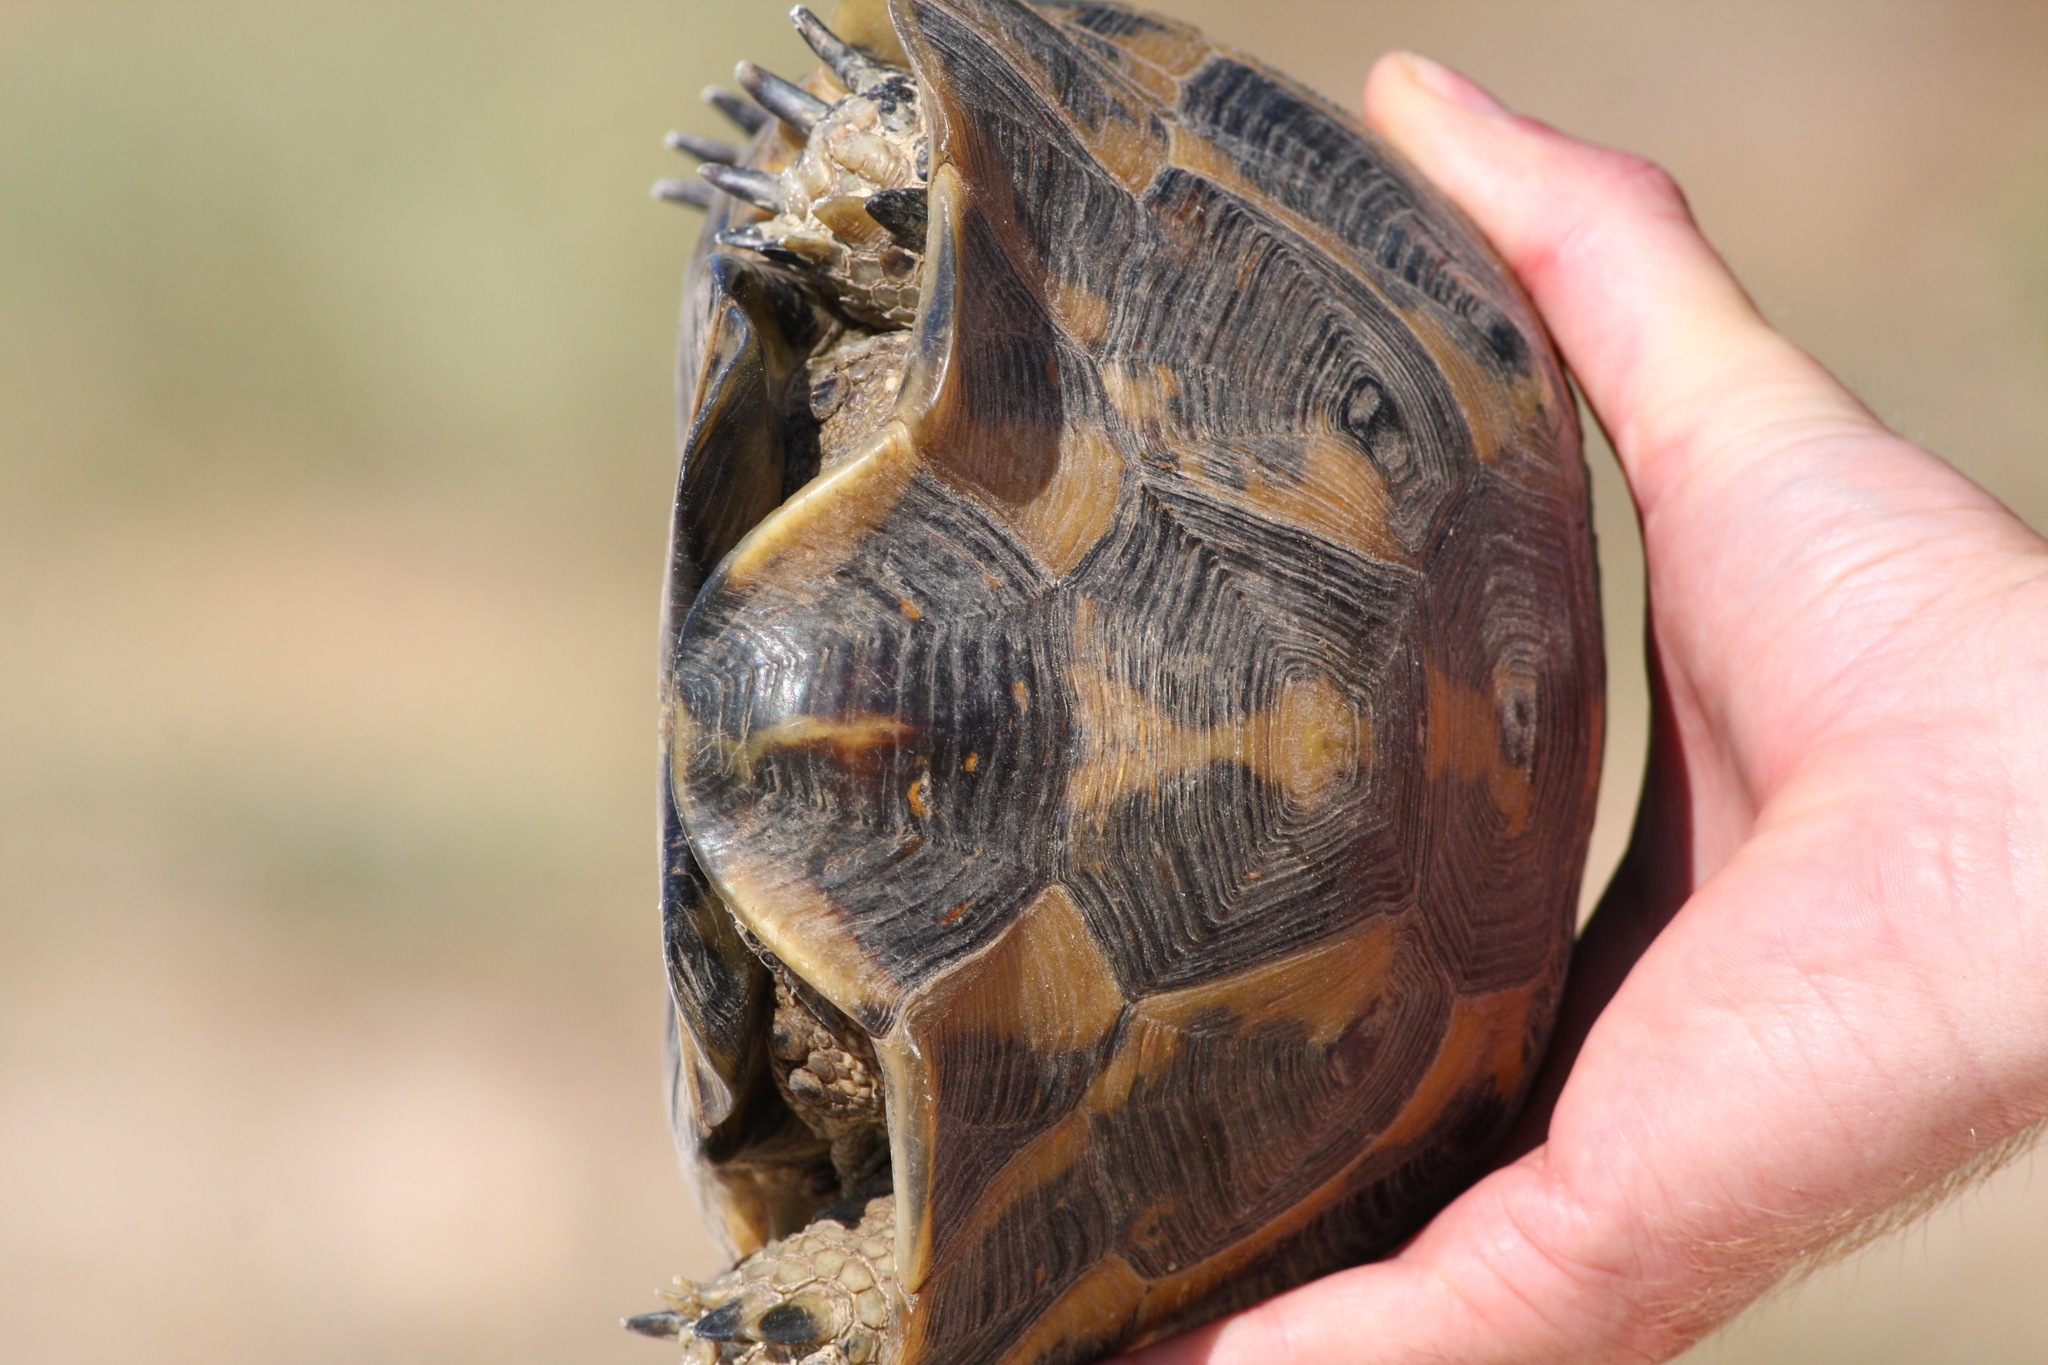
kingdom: Animalia
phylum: Chordata
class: Testudines
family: Testudinidae
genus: Testudo
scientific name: Testudo graeca
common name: Common tortoise
